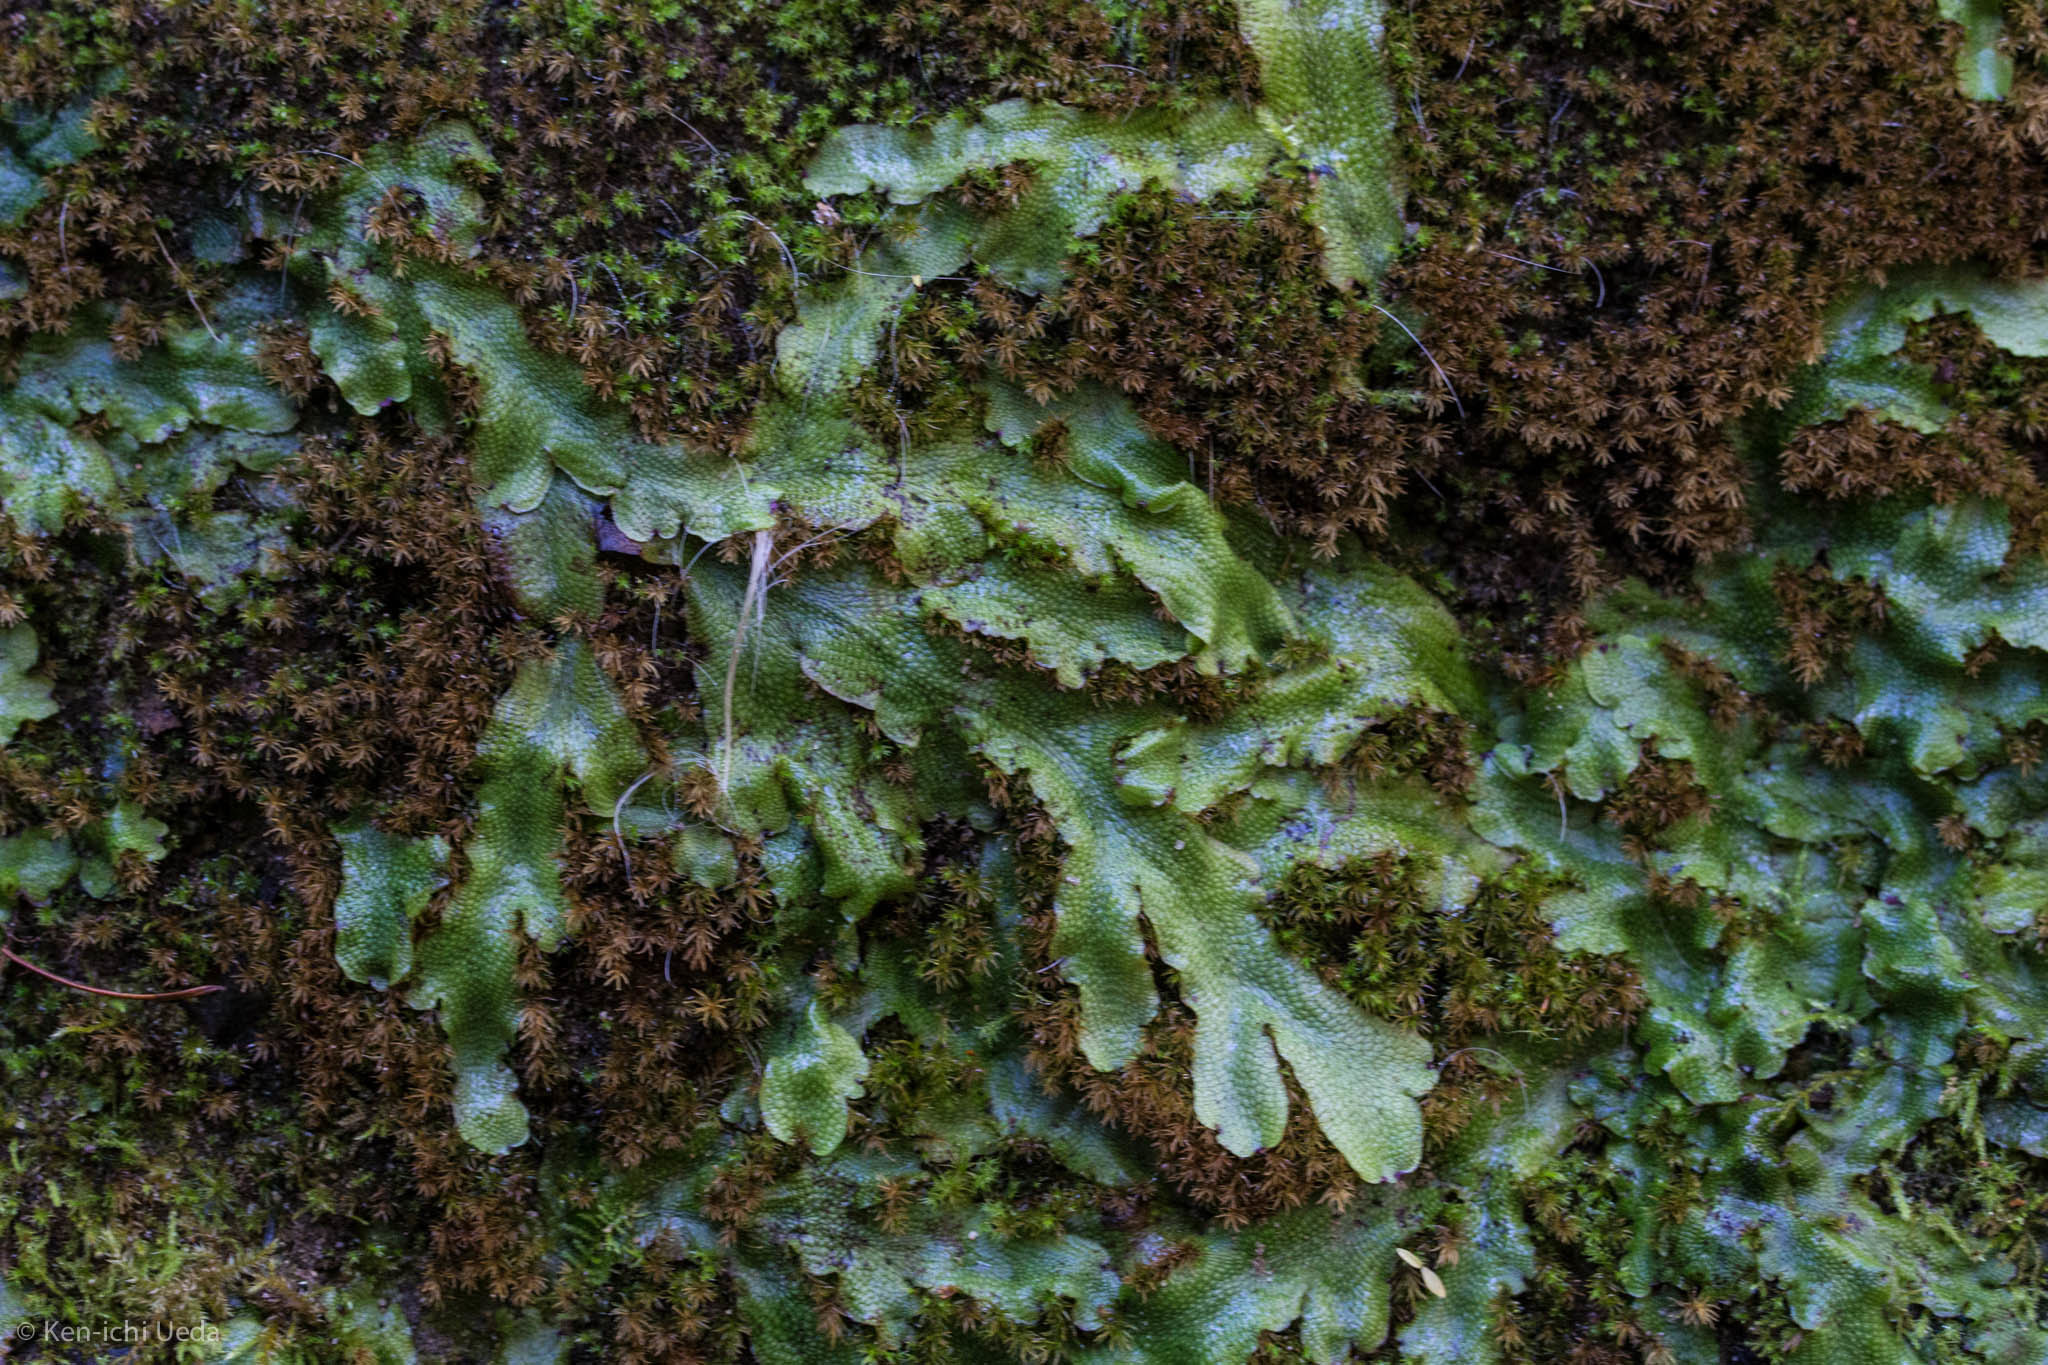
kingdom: Plantae
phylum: Marchantiophyta
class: Marchantiopsida
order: Marchantiales
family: Conocephalaceae
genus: Conocephalum
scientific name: Conocephalum salebrosum
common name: Cat-tongue liverwort
